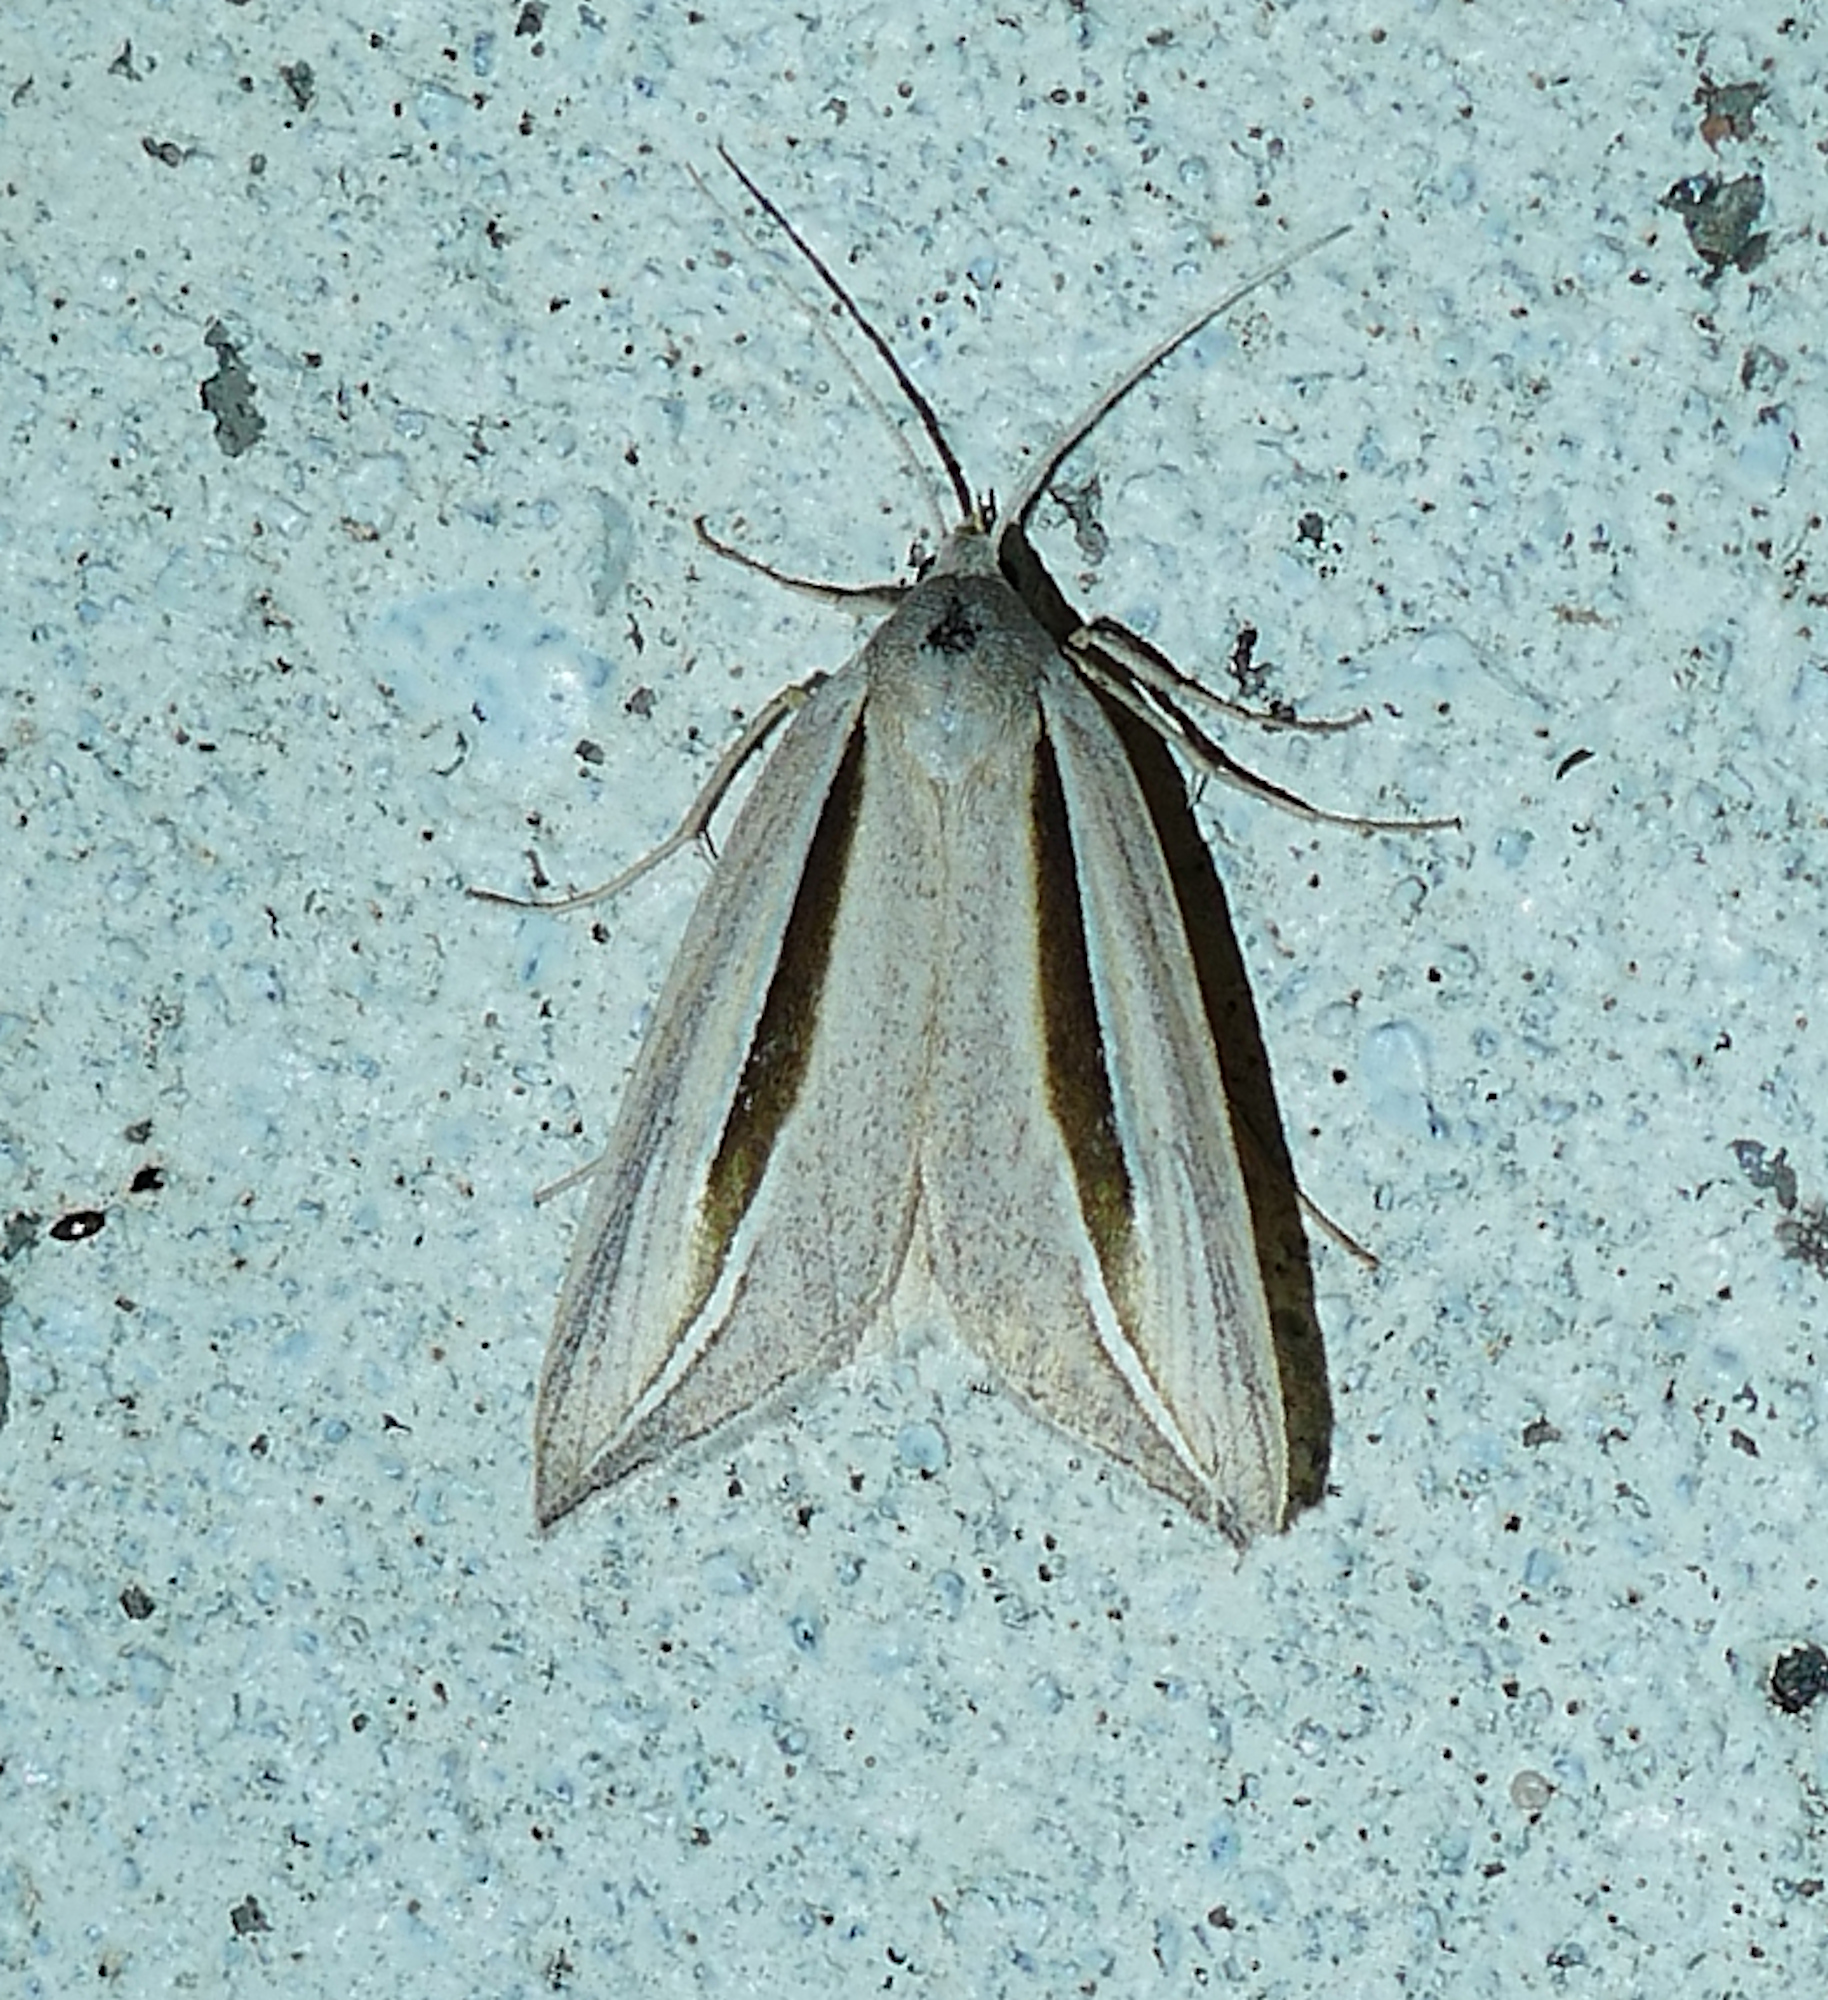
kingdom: Animalia
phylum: Arthropoda
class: Insecta
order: Lepidoptera
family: Erebidae
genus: Doryodes
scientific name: Doryodes latistriga
